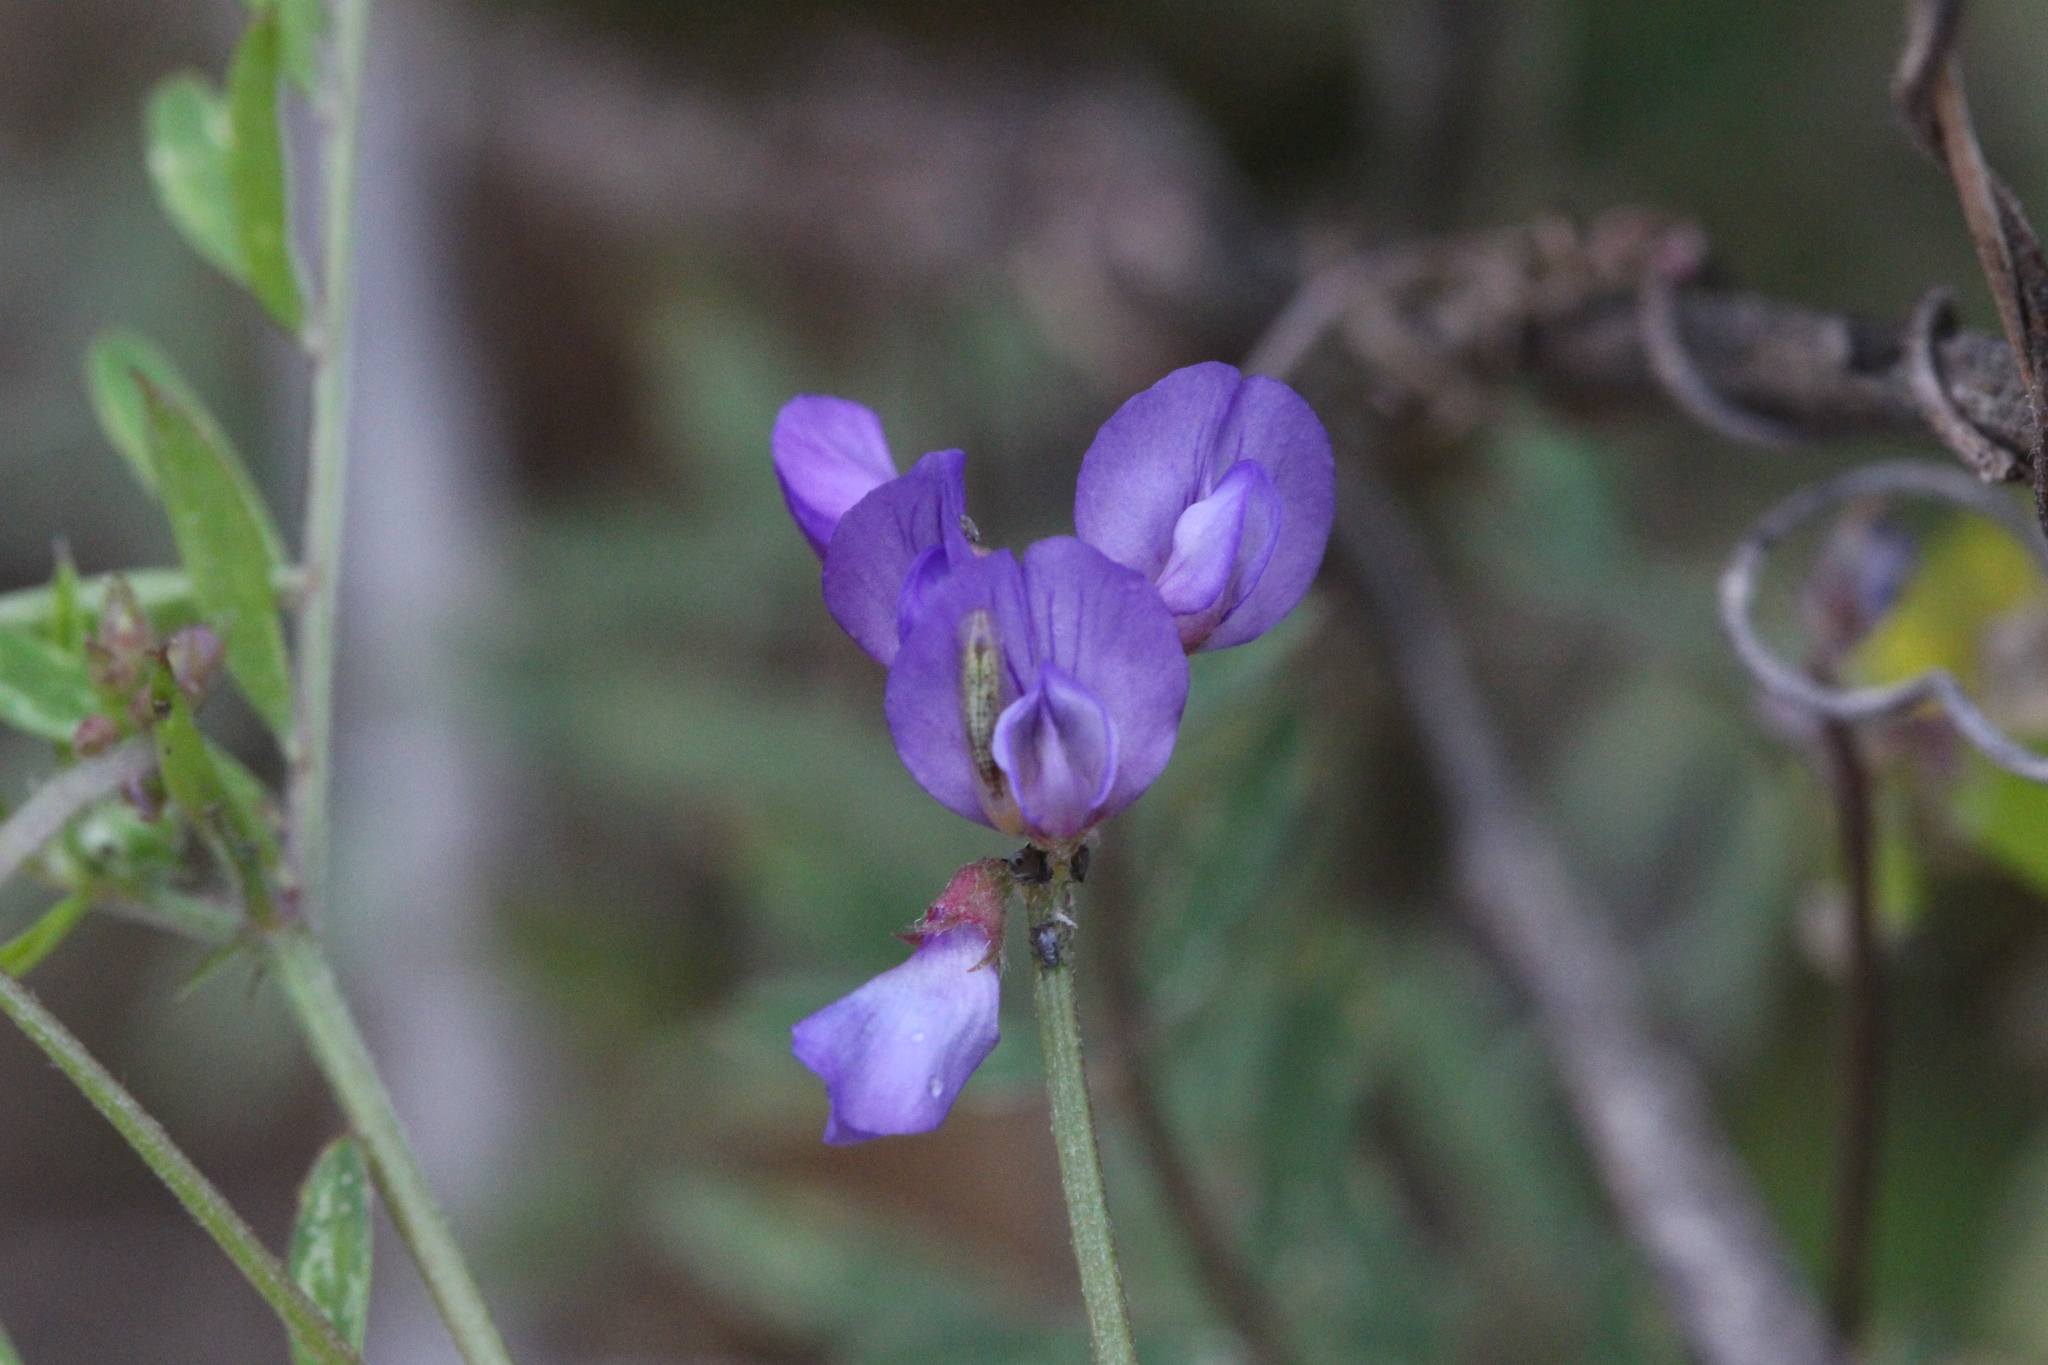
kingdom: Plantae
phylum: Tracheophyta
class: Magnoliopsida
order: Fabales
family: Fabaceae
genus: Vicia
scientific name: Vicia ludoviciana
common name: Louisiana vetch
